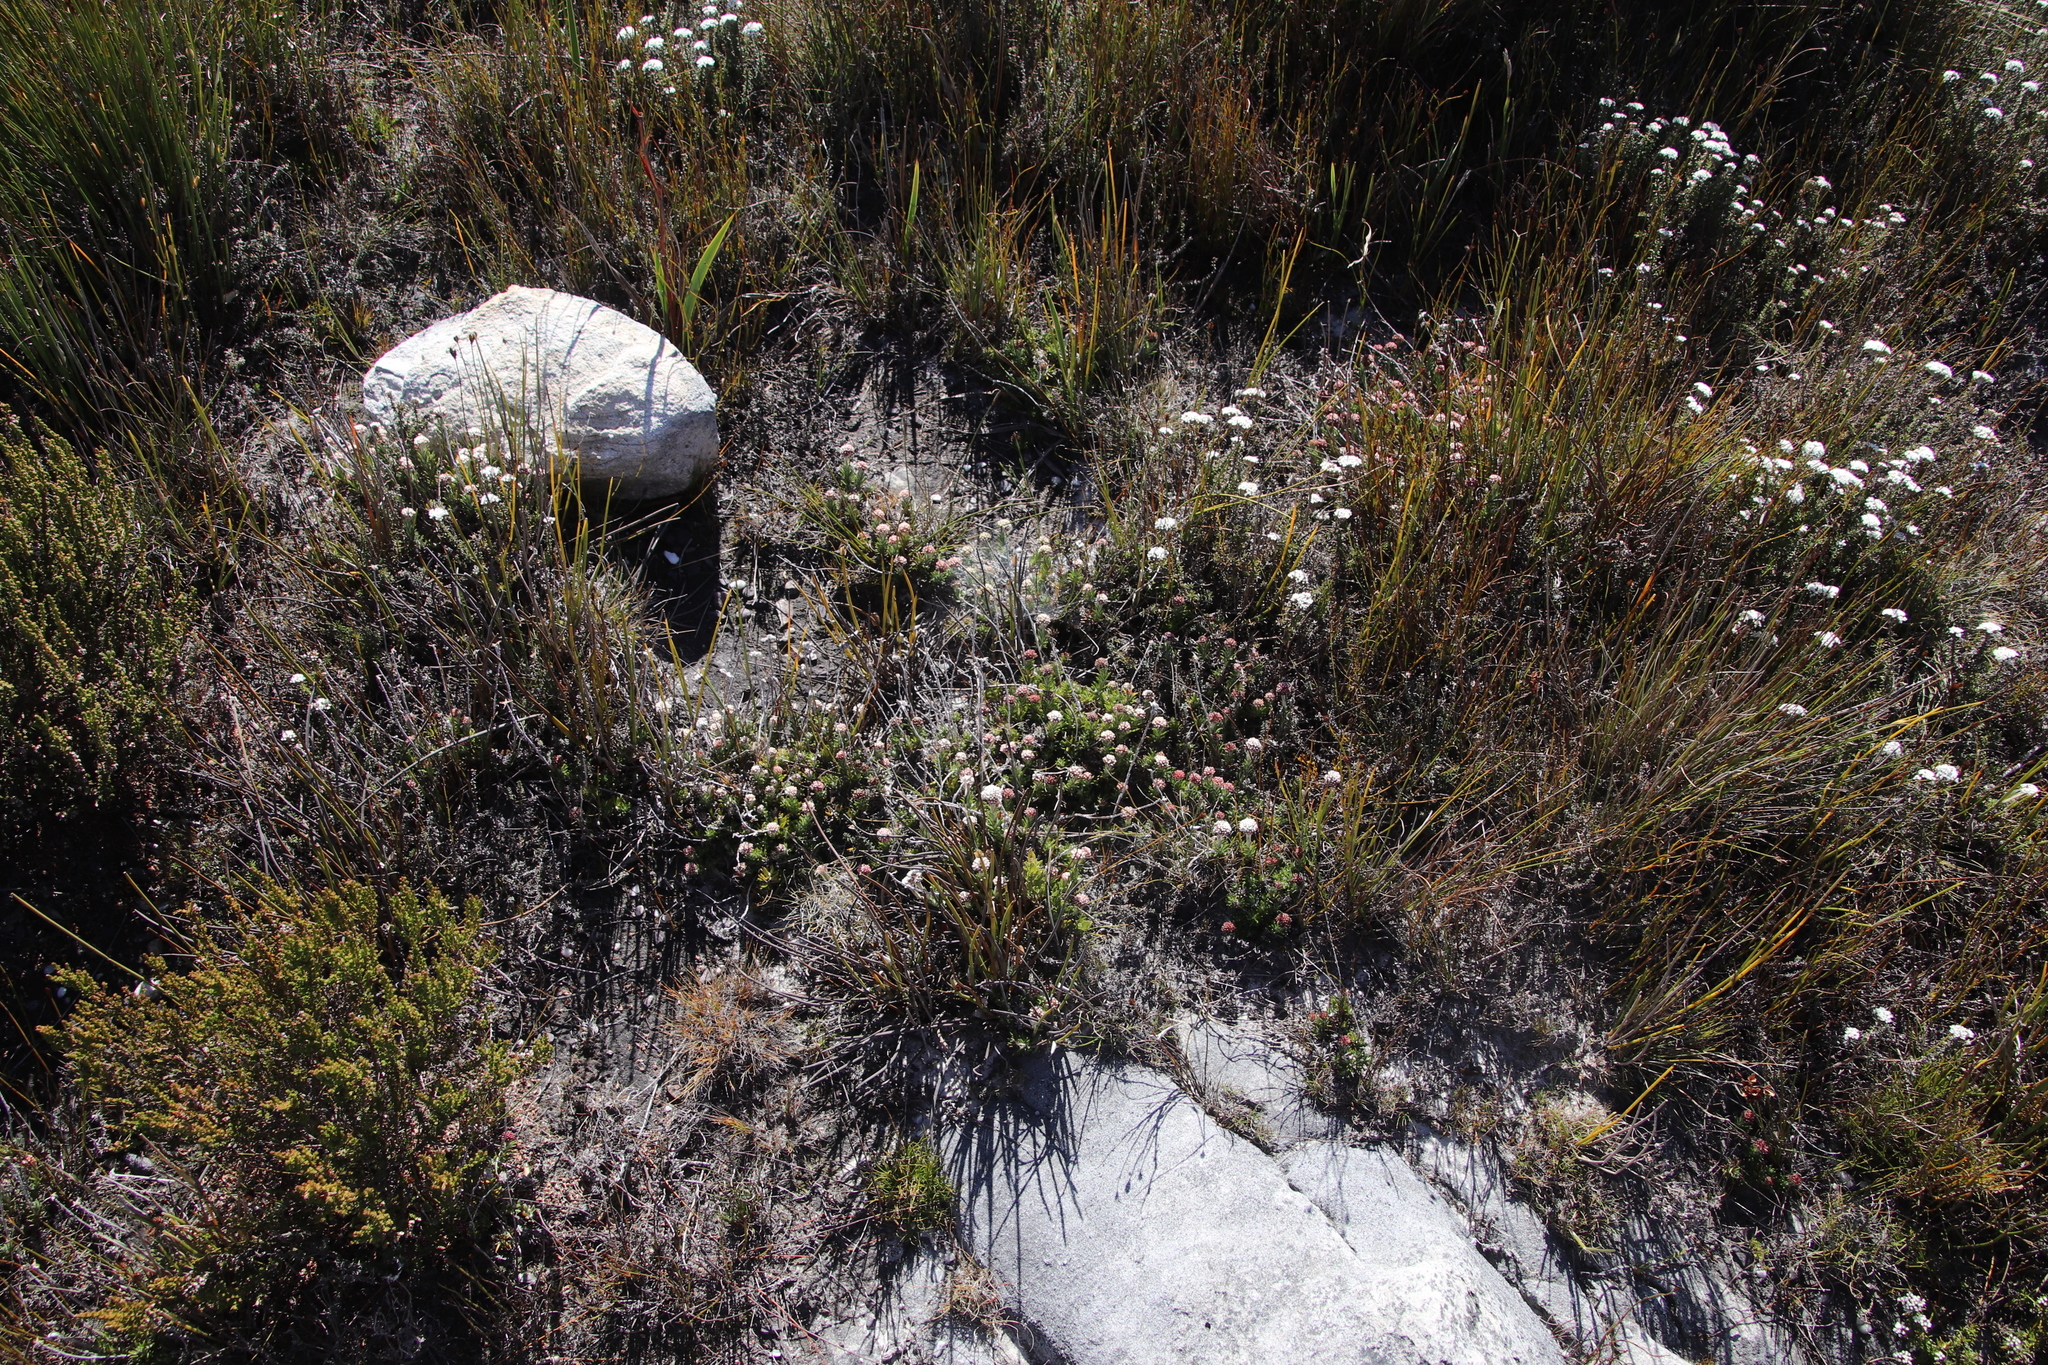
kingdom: Plantae
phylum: Tracheophyta
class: Magnoliopsida
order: Asterales
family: Asteraceae
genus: Metalasia
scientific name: Metalasia montana
